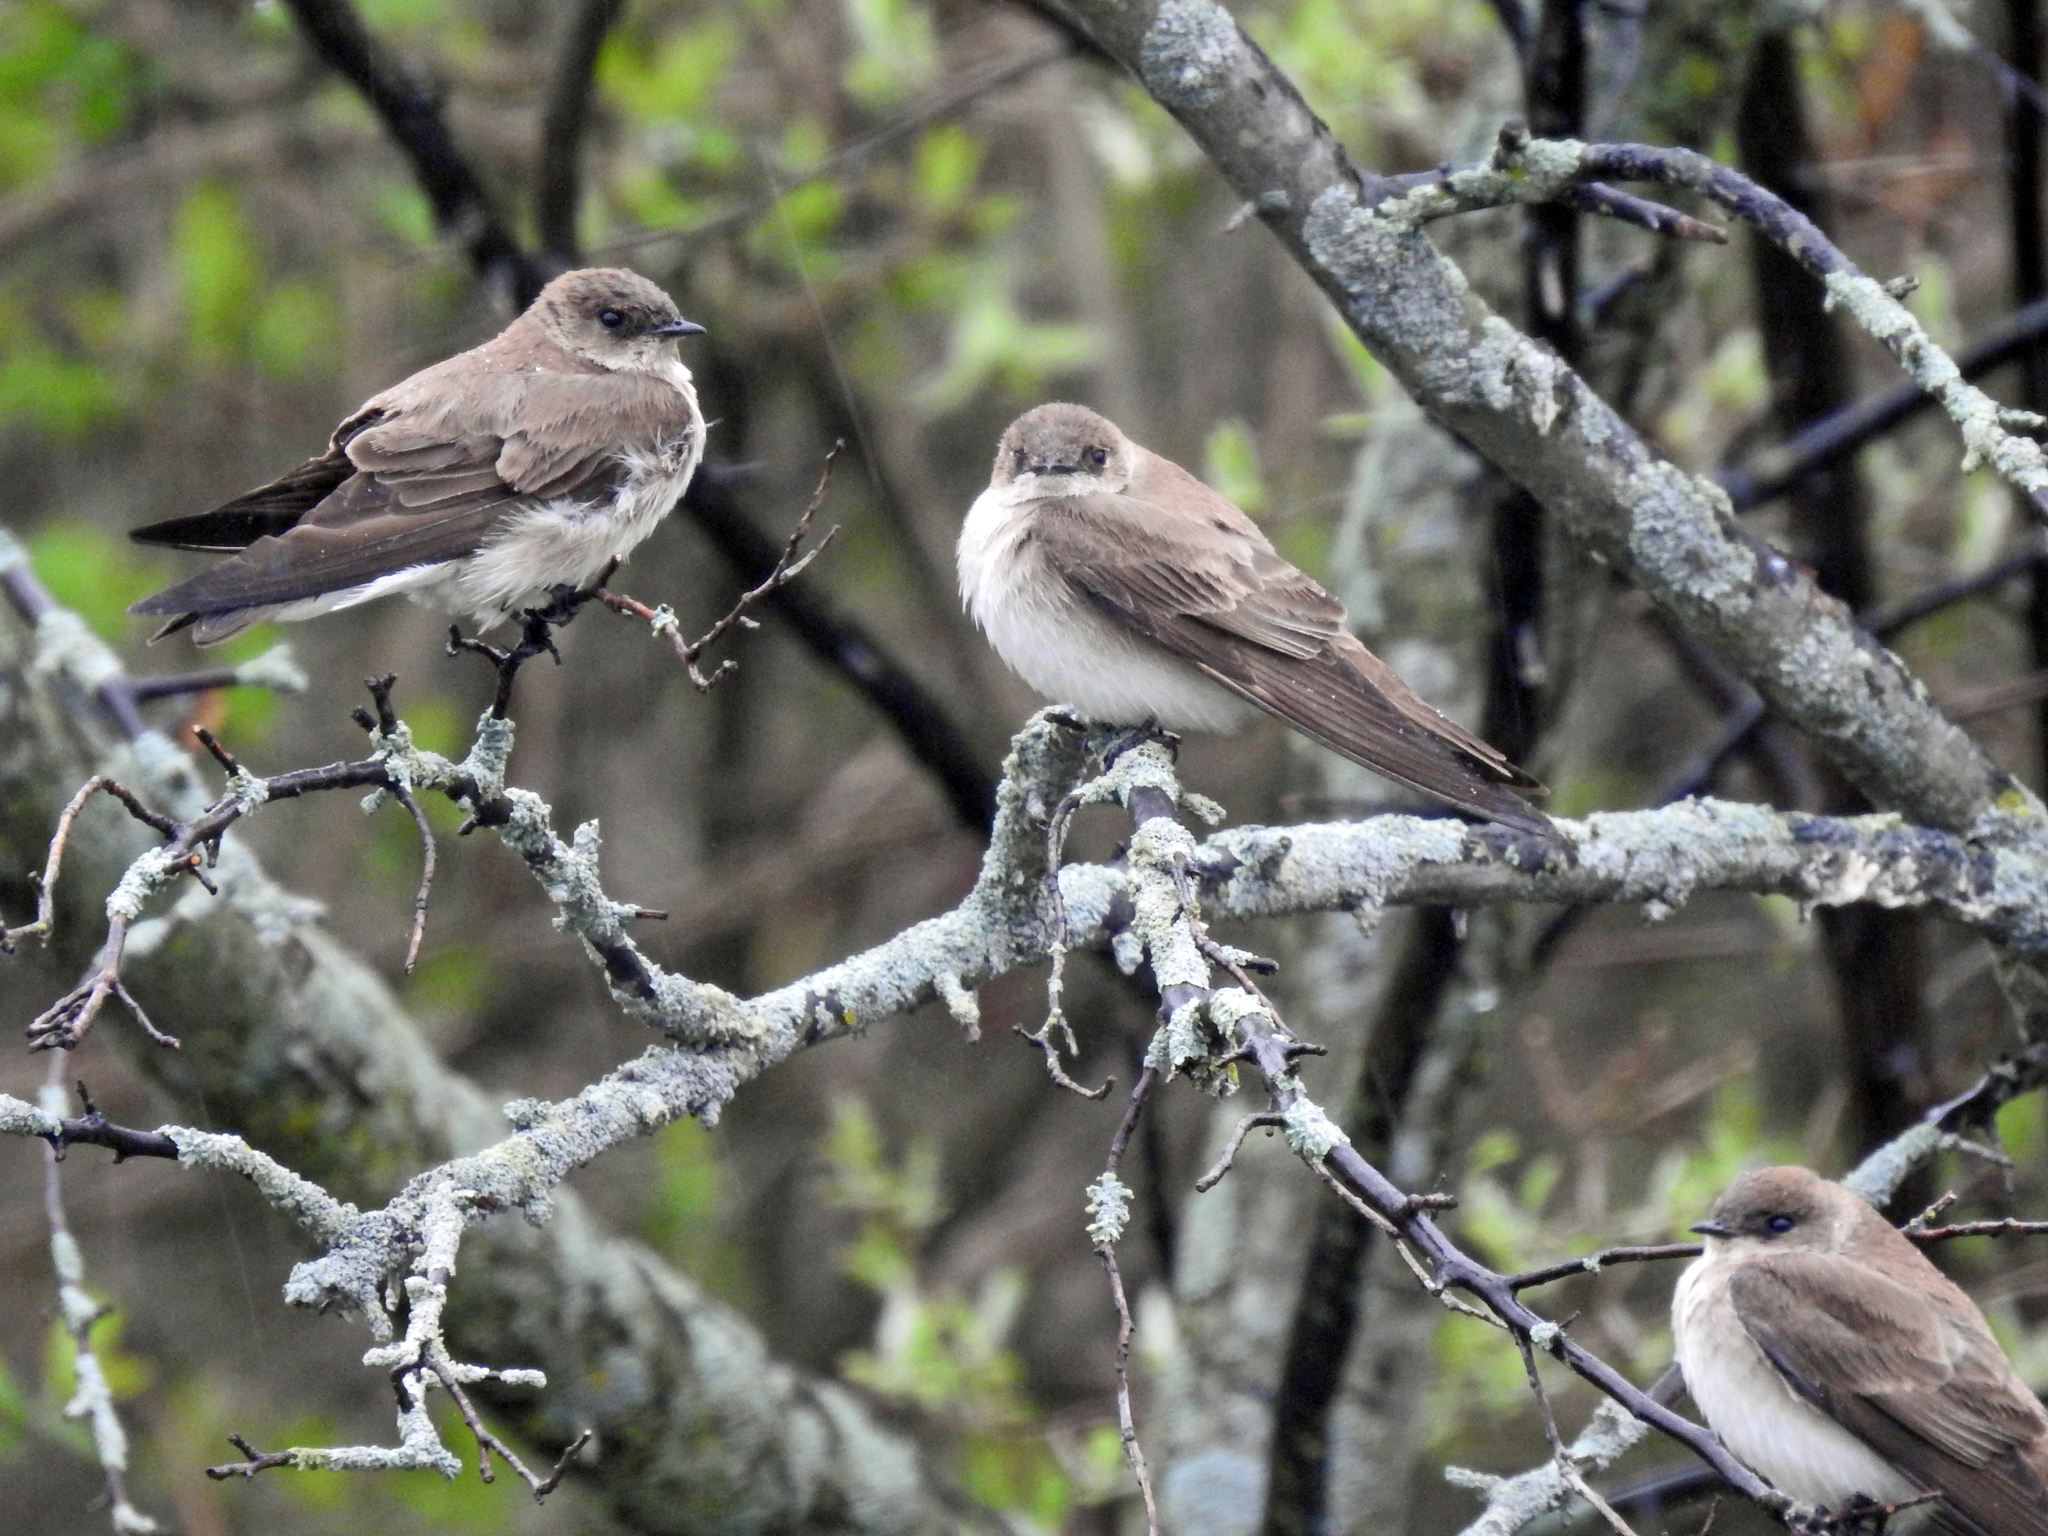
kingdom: Animalia
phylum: Chordata
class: Aves
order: Passeriformes
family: Hirundinidae
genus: Stelgidopteryx
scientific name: Stelgidopteryx serripennis
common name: Northern rough-winged swallow
